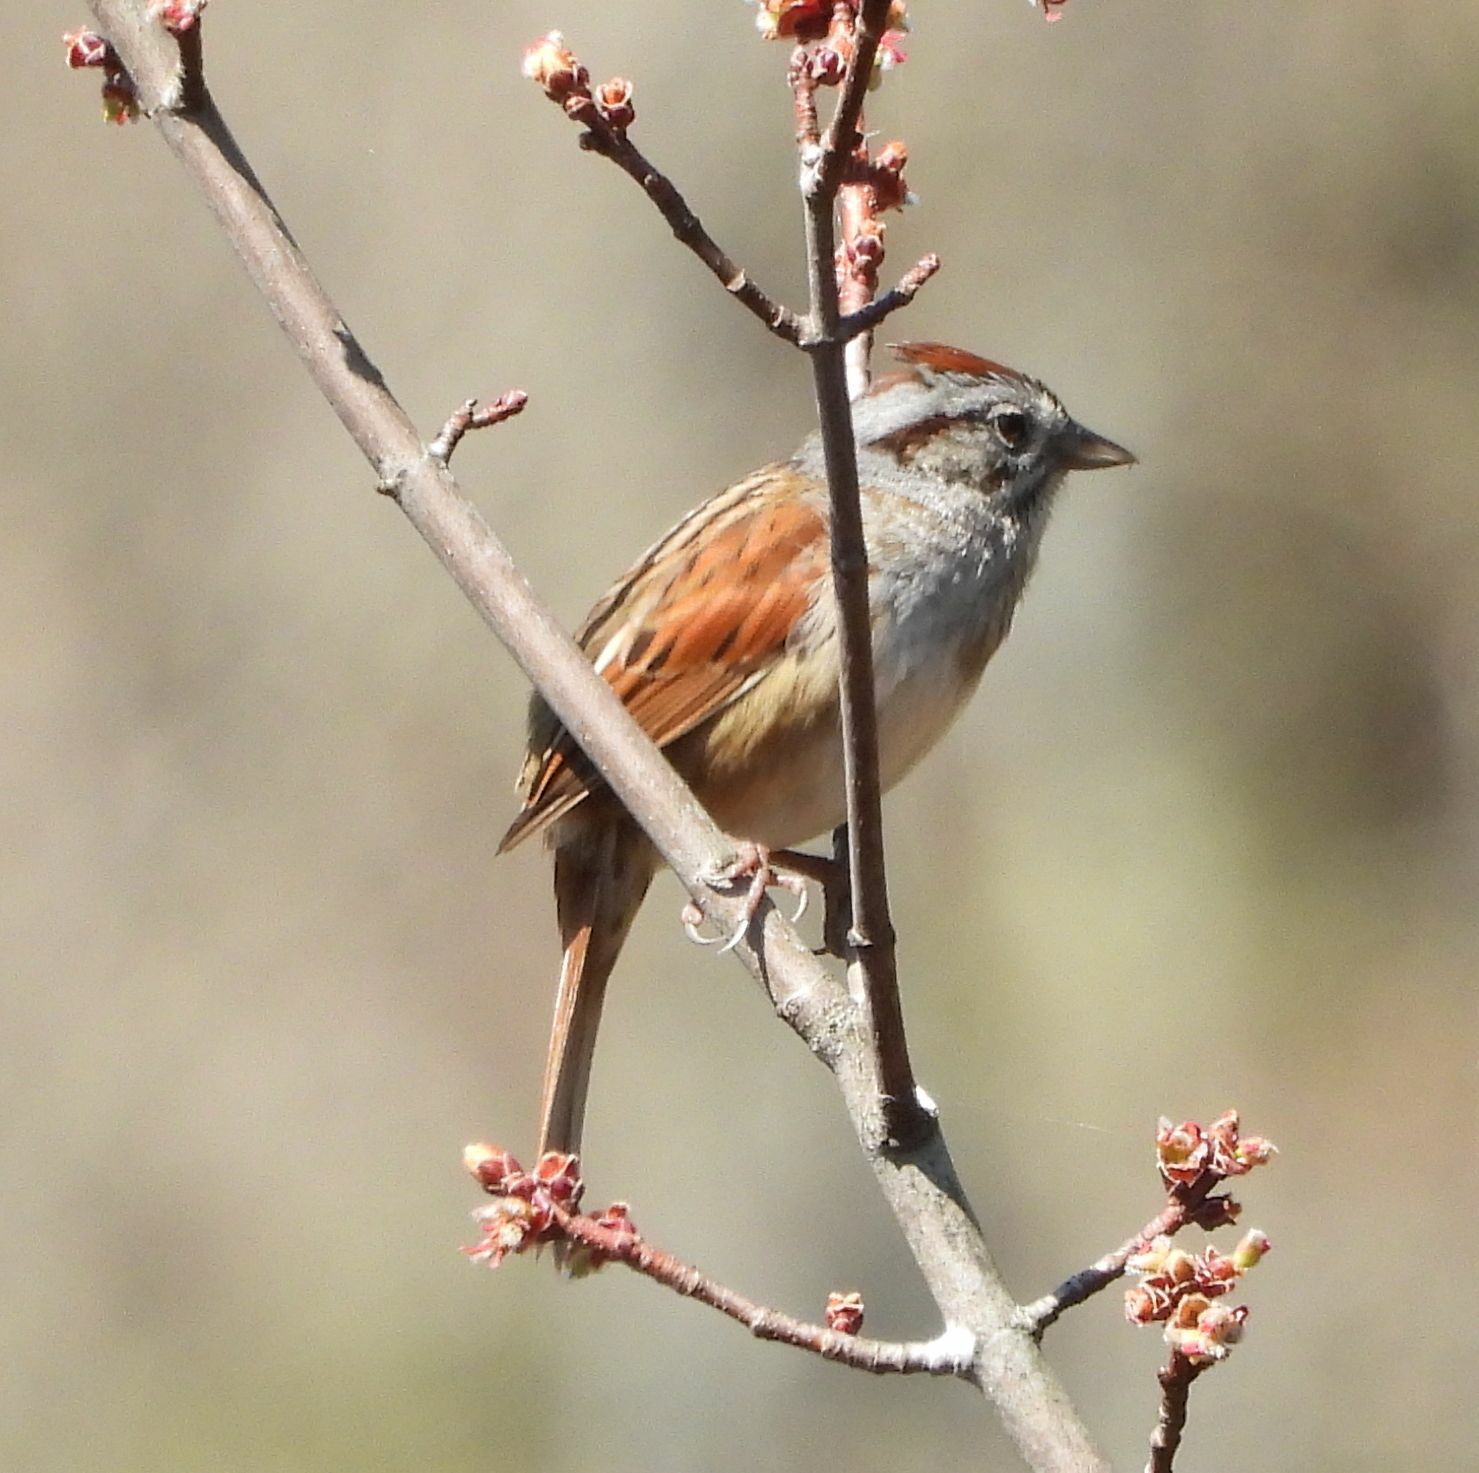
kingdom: Animalia
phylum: Chordata
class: Aves
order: Passeriformes
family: Passerellidae
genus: Melospiza
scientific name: Melospiza georgiana
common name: Swamp sparrow
